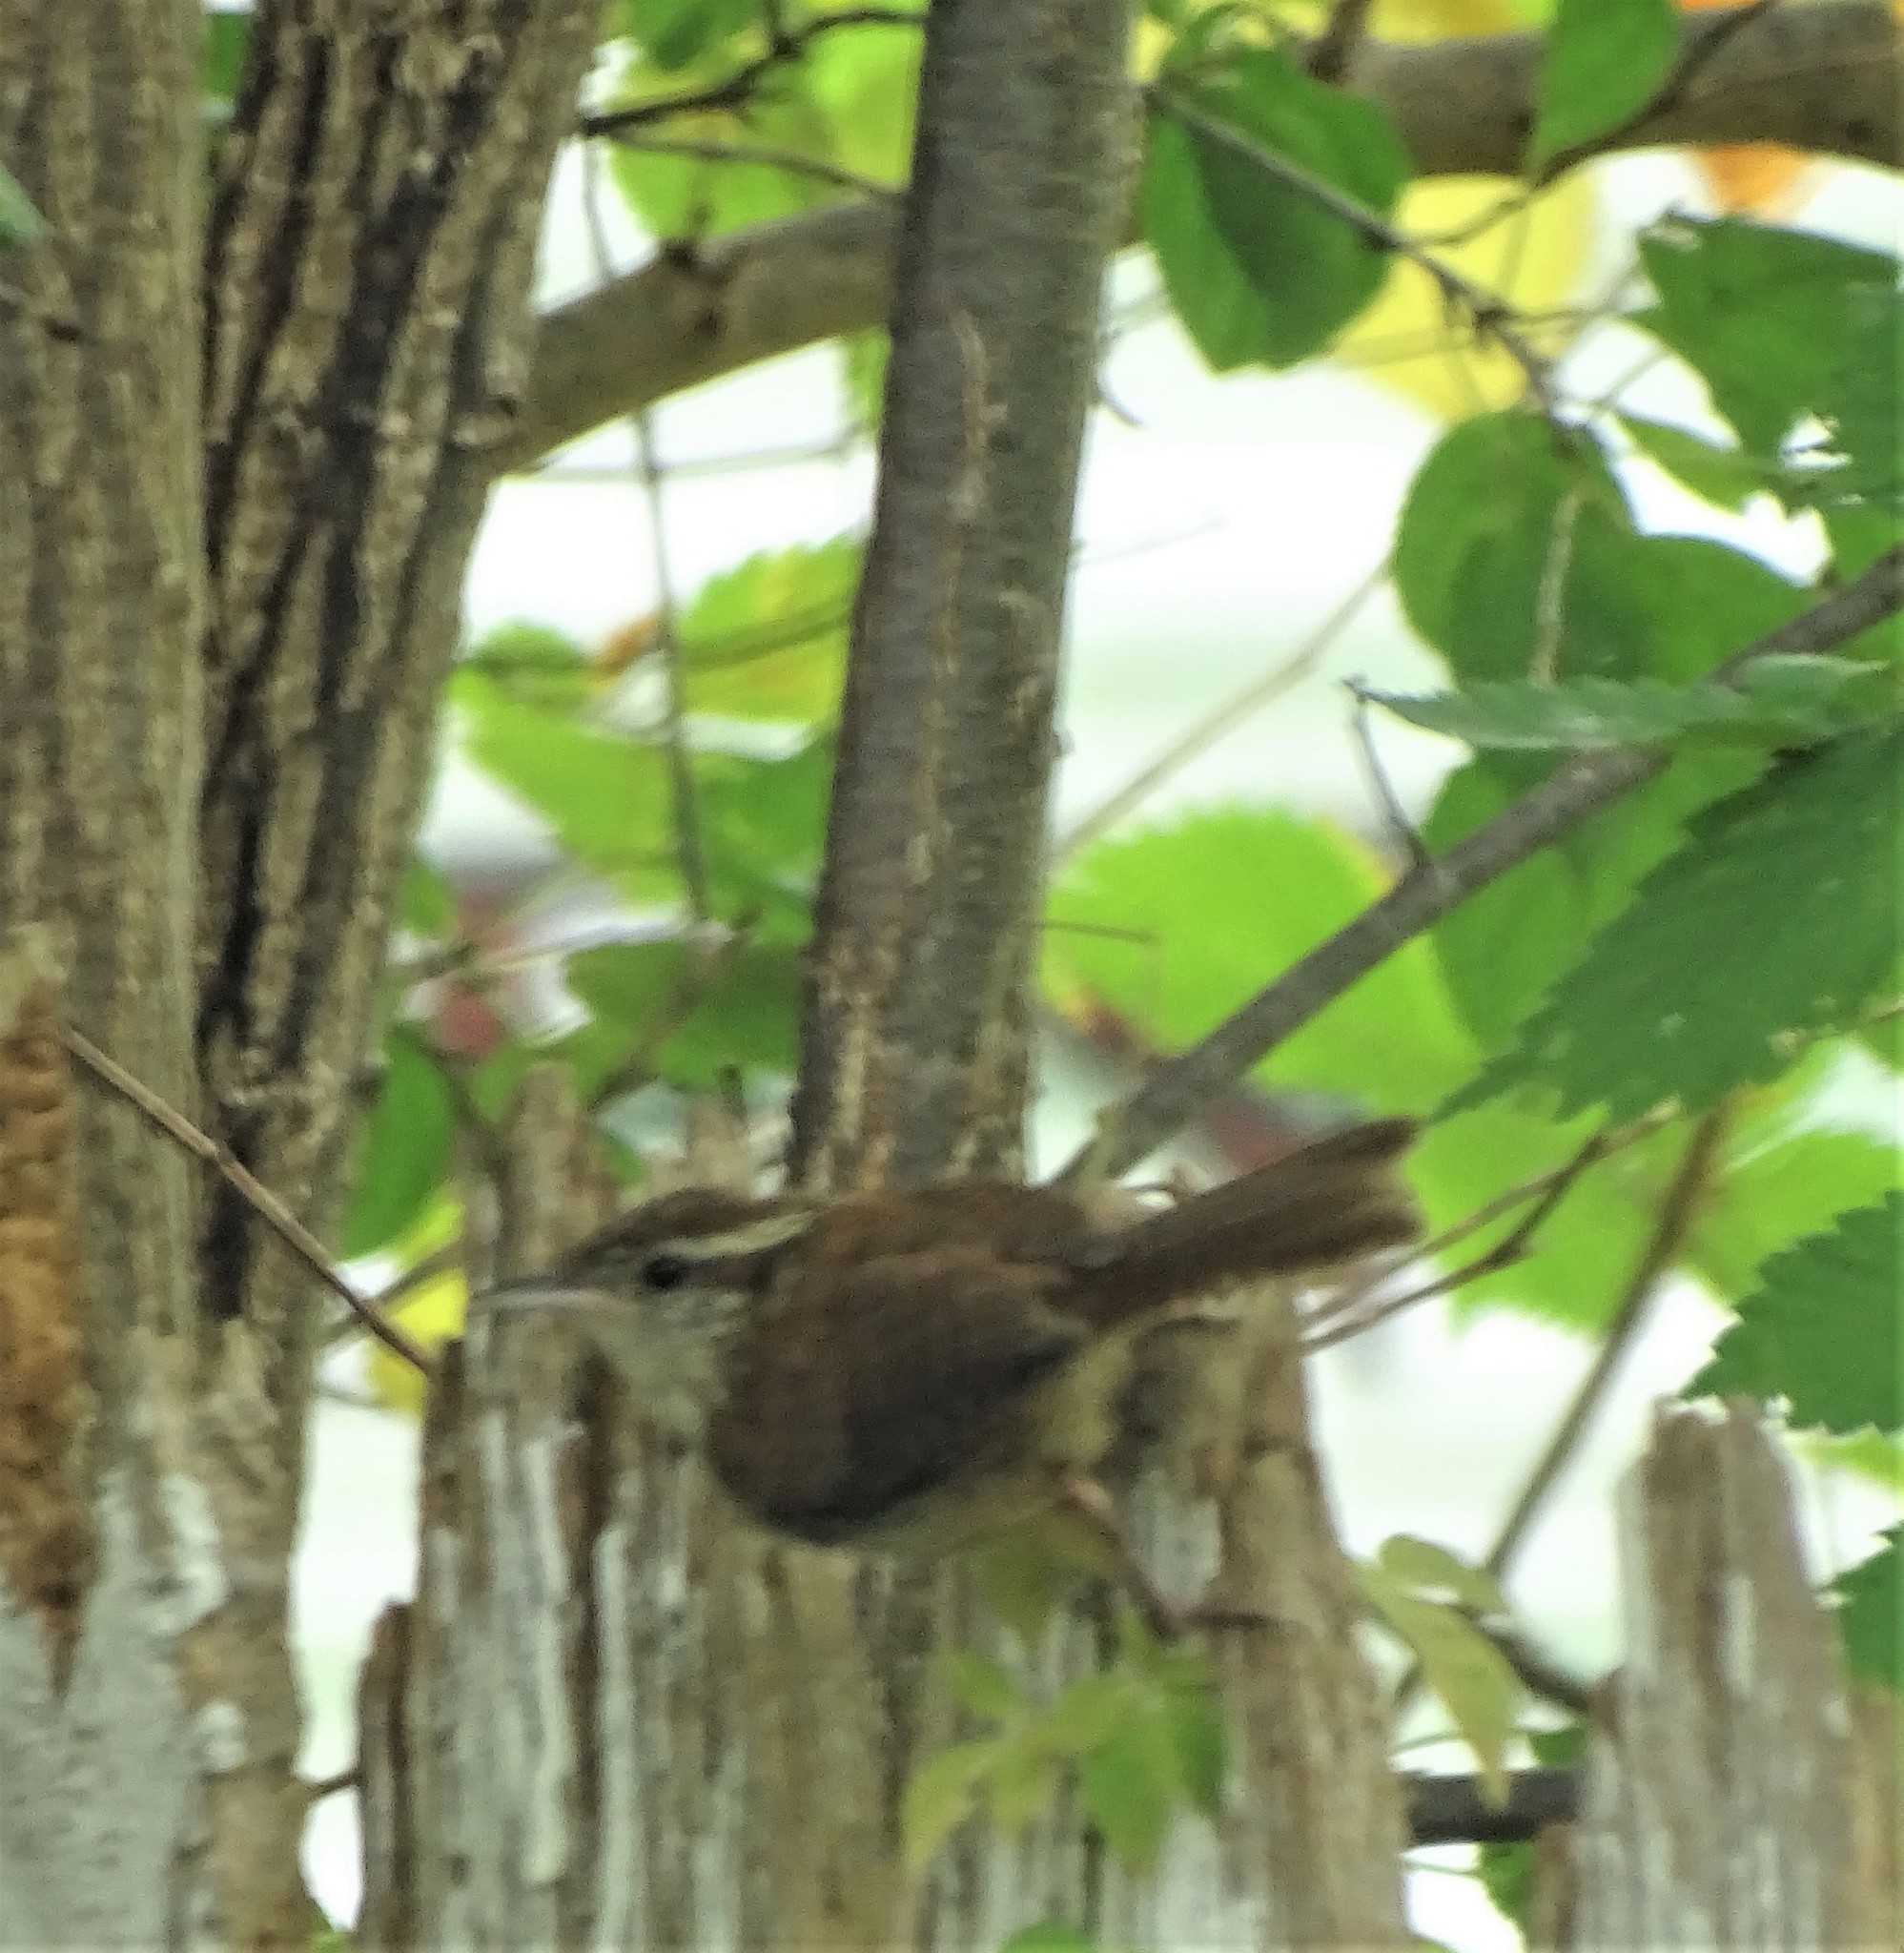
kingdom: Animalia
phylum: Chordata
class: Aves
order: Passeriformes
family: Troglodytidae
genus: Thryothorus
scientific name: Thryothorus ludovicianus
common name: Carolina wren
